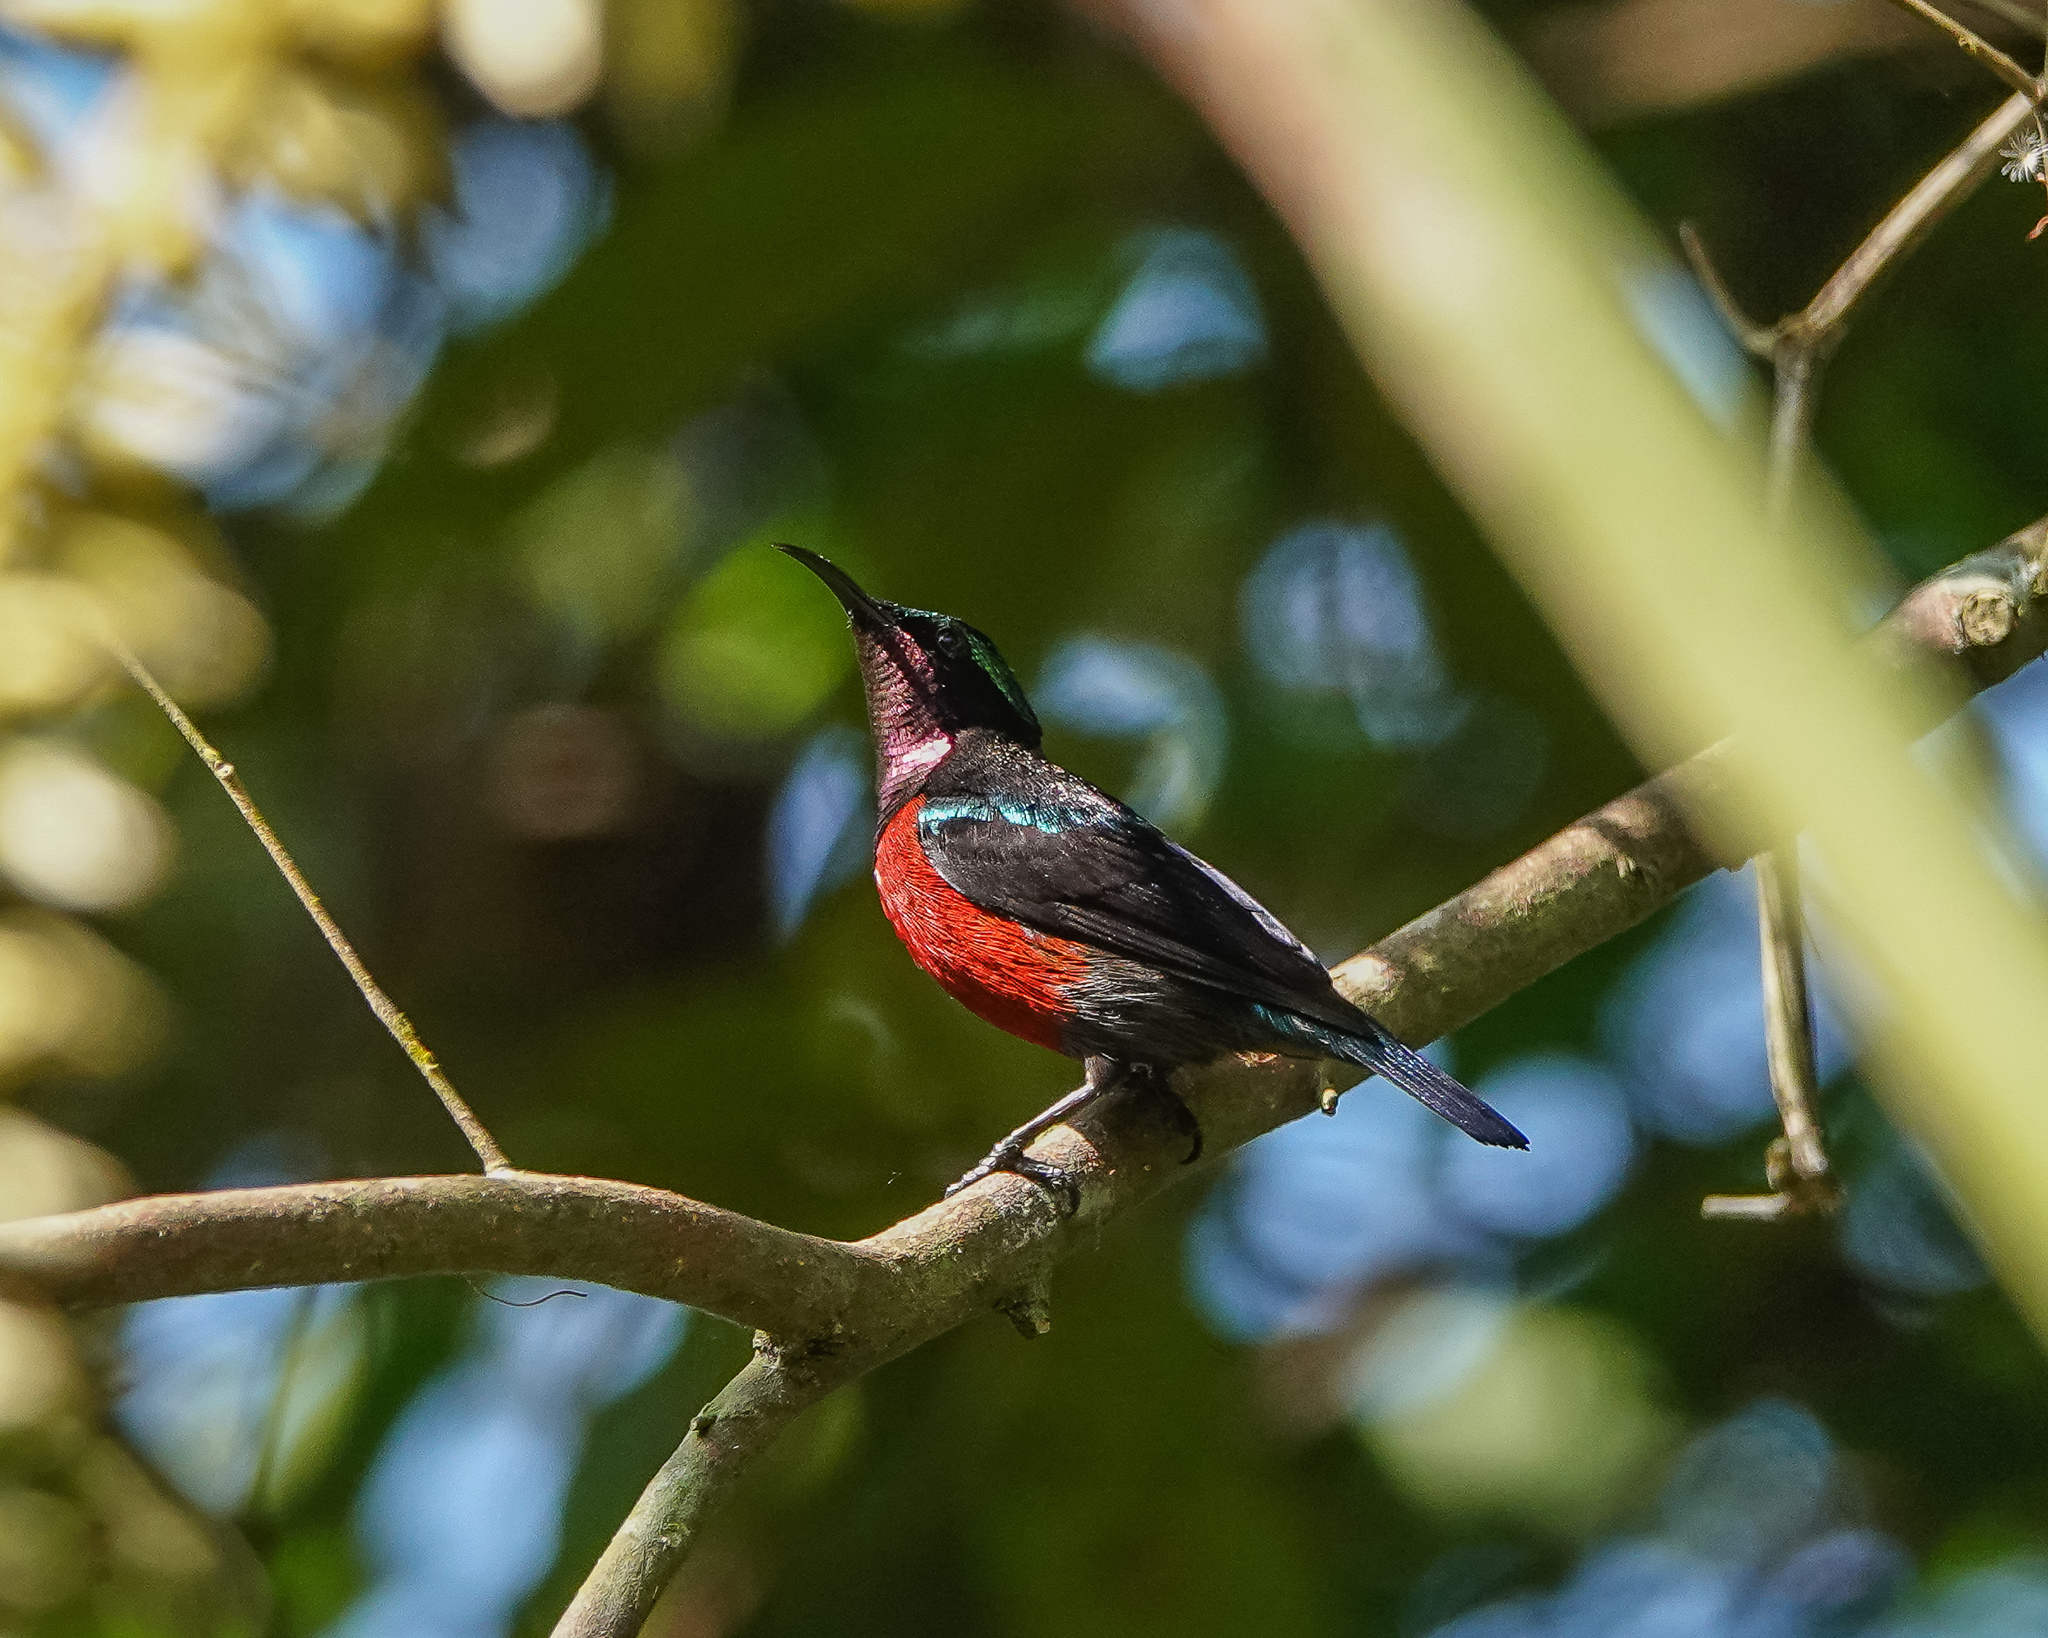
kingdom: Animalia
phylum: Chordata
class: Aves
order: Passeriformes
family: Nectariniidae
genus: Leptocoma
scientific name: Leptocoma brasiliana
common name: Van hasselt's sunbird
